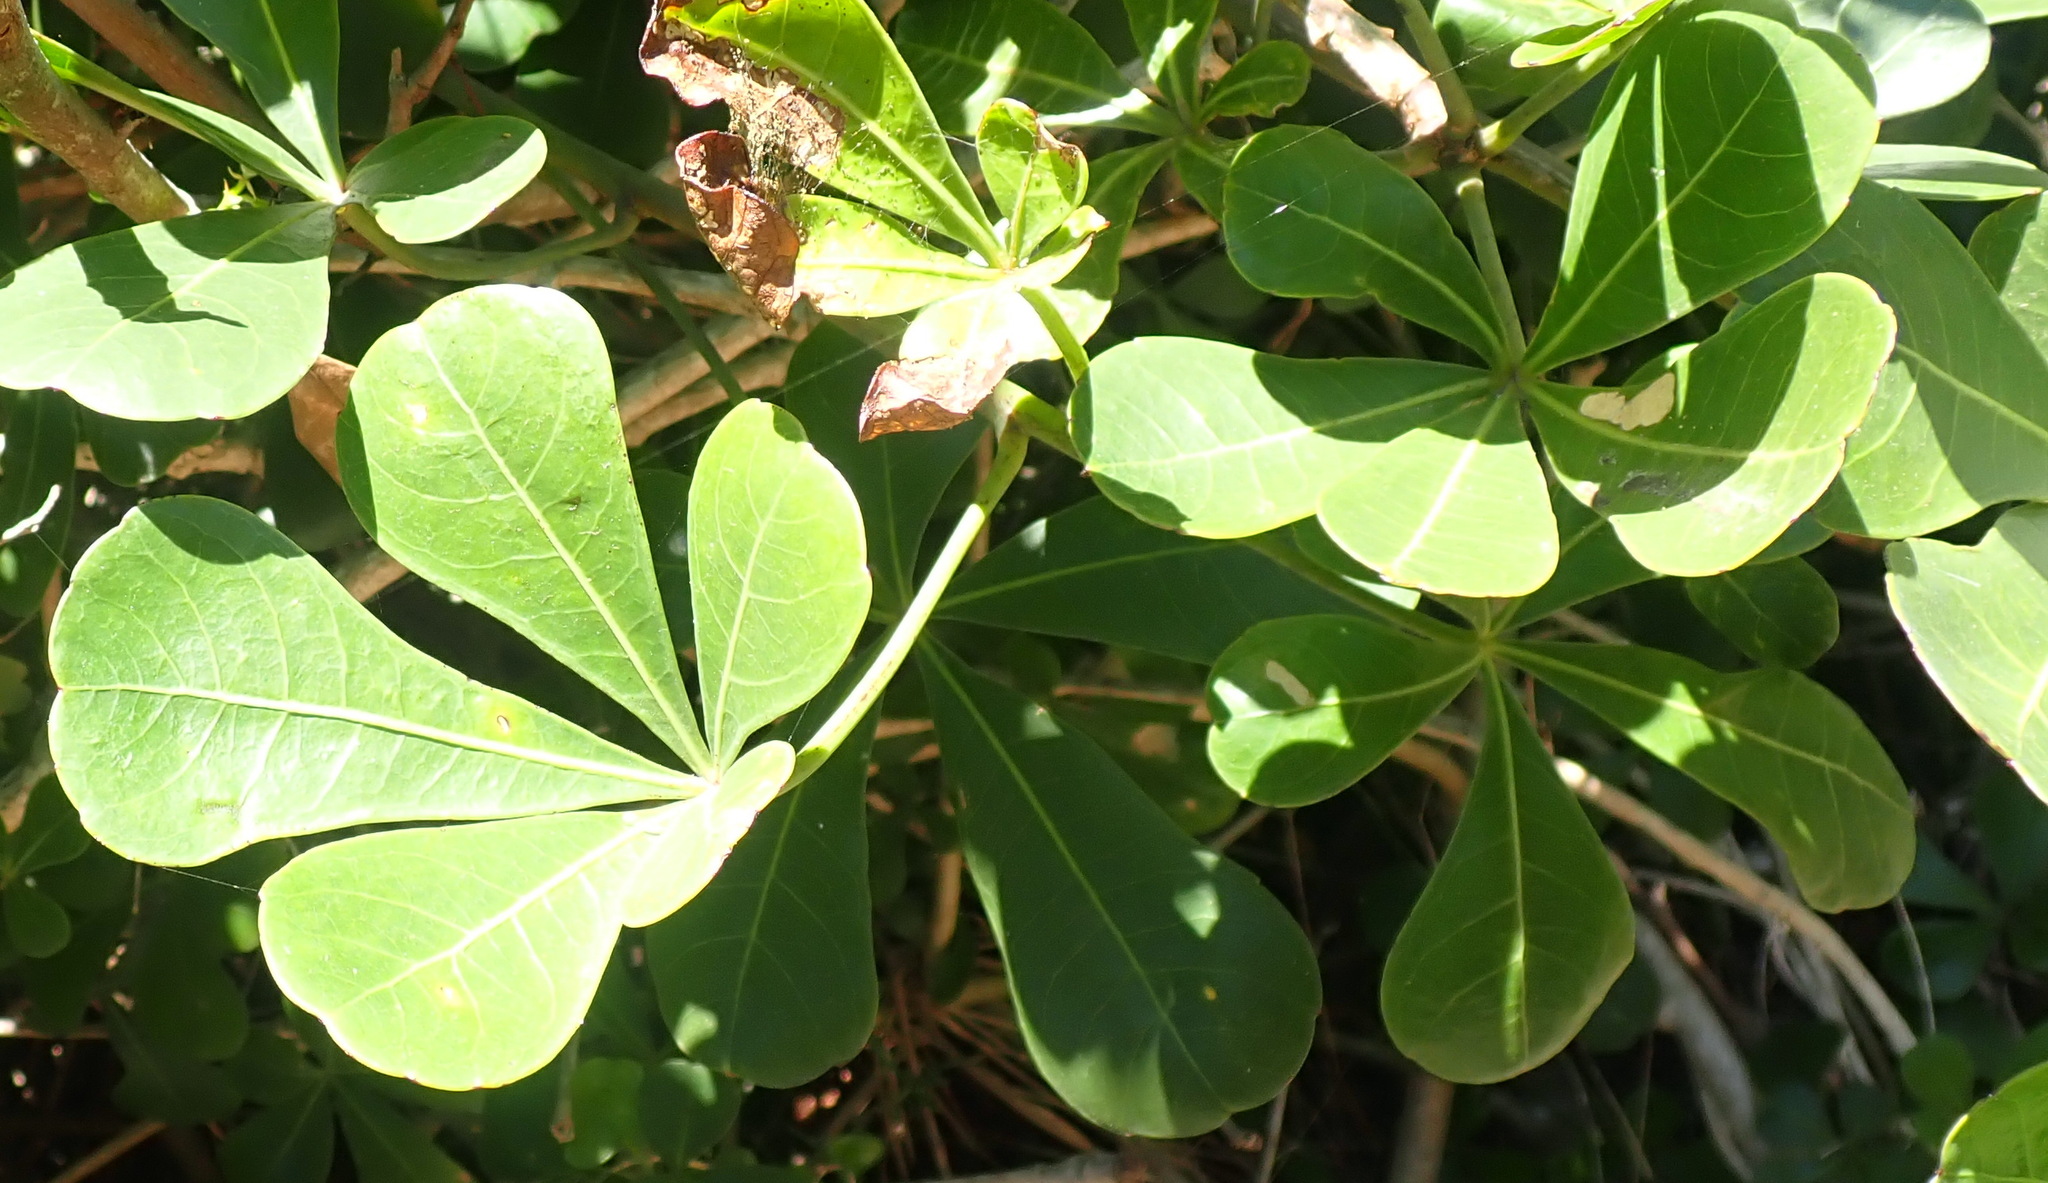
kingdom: Plantae
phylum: Tracheophyta
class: Magnoliopsida
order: Apiales
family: Araliaceae
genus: Cussonia
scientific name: Cussonia thyrsiflora
